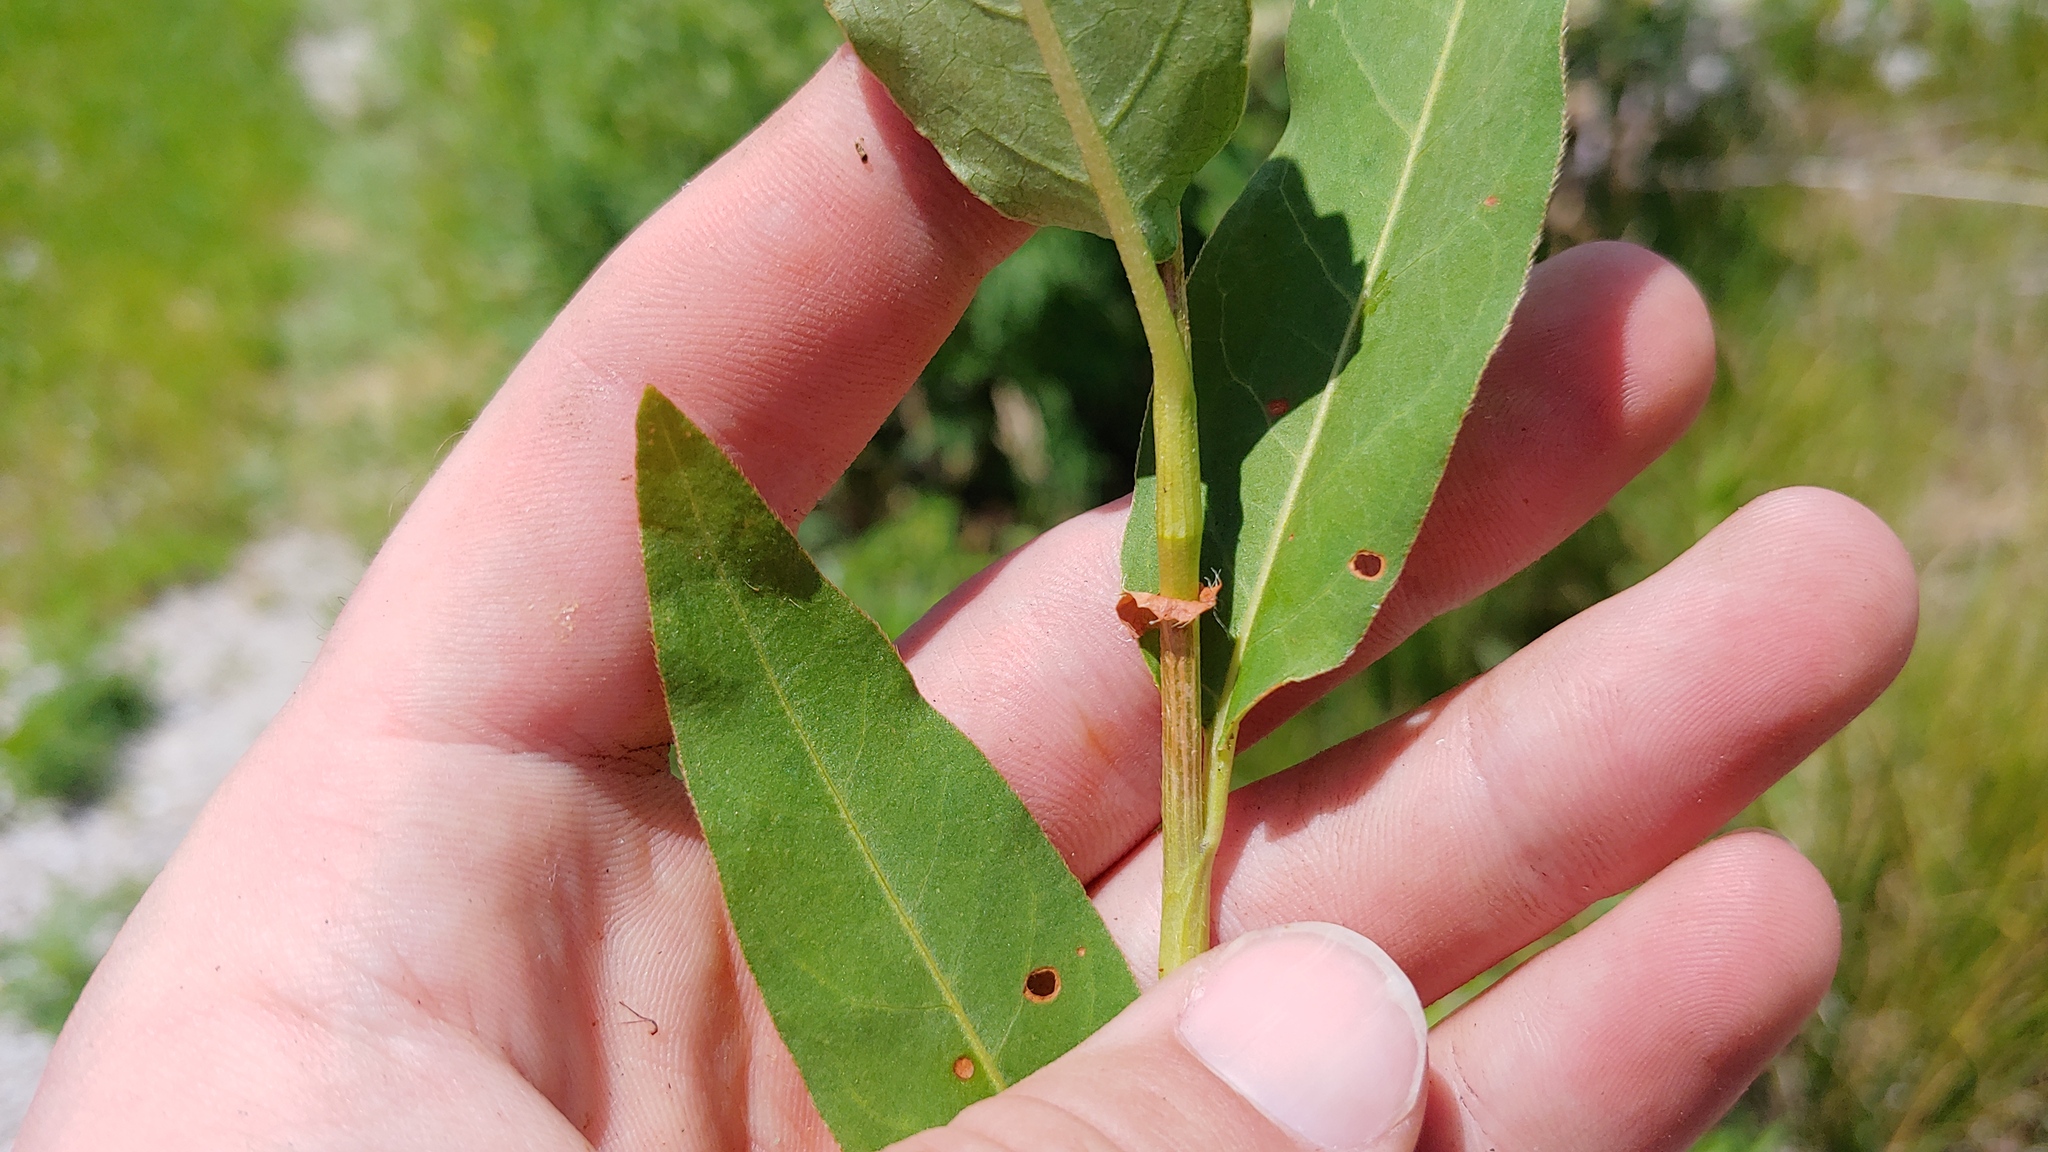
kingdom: Plantae
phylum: Tracheophyta
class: Magnoliopsida
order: Caryophyllales
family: Polygonaceae
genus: Persicaria
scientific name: Persicaria amphibia
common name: Amphibious bistort
